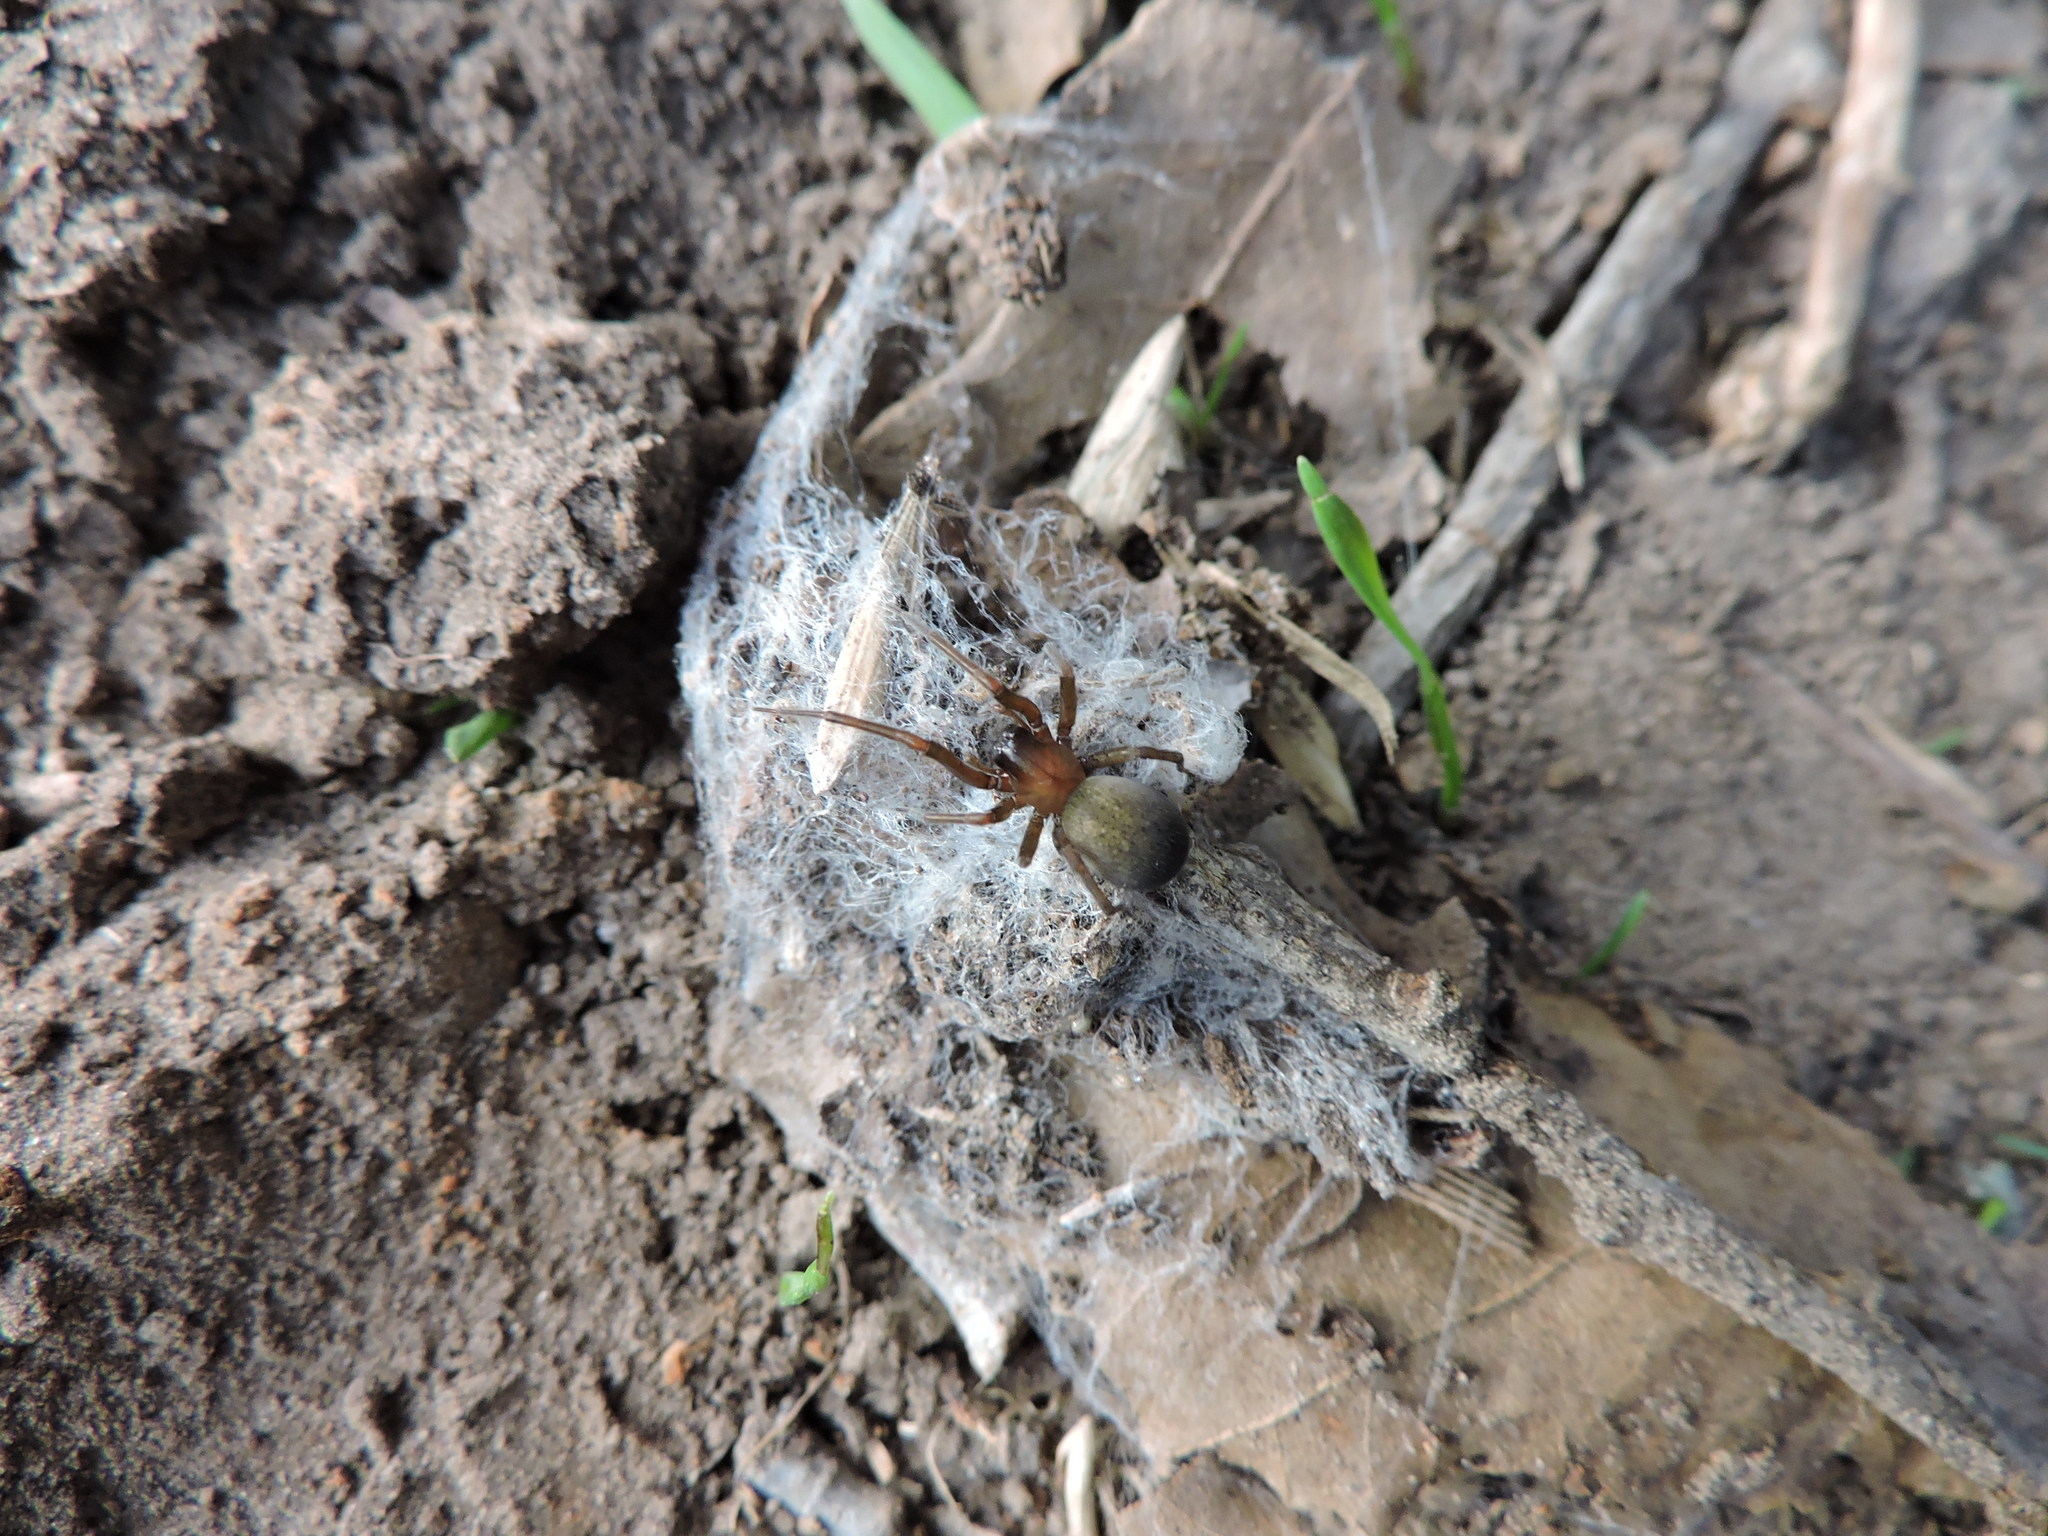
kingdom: Animalia
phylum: Arthropoda
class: Arachnida
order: Araneae
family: Desidae
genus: Metaltella
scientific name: Metaltella simoni
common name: Cribellate spider
